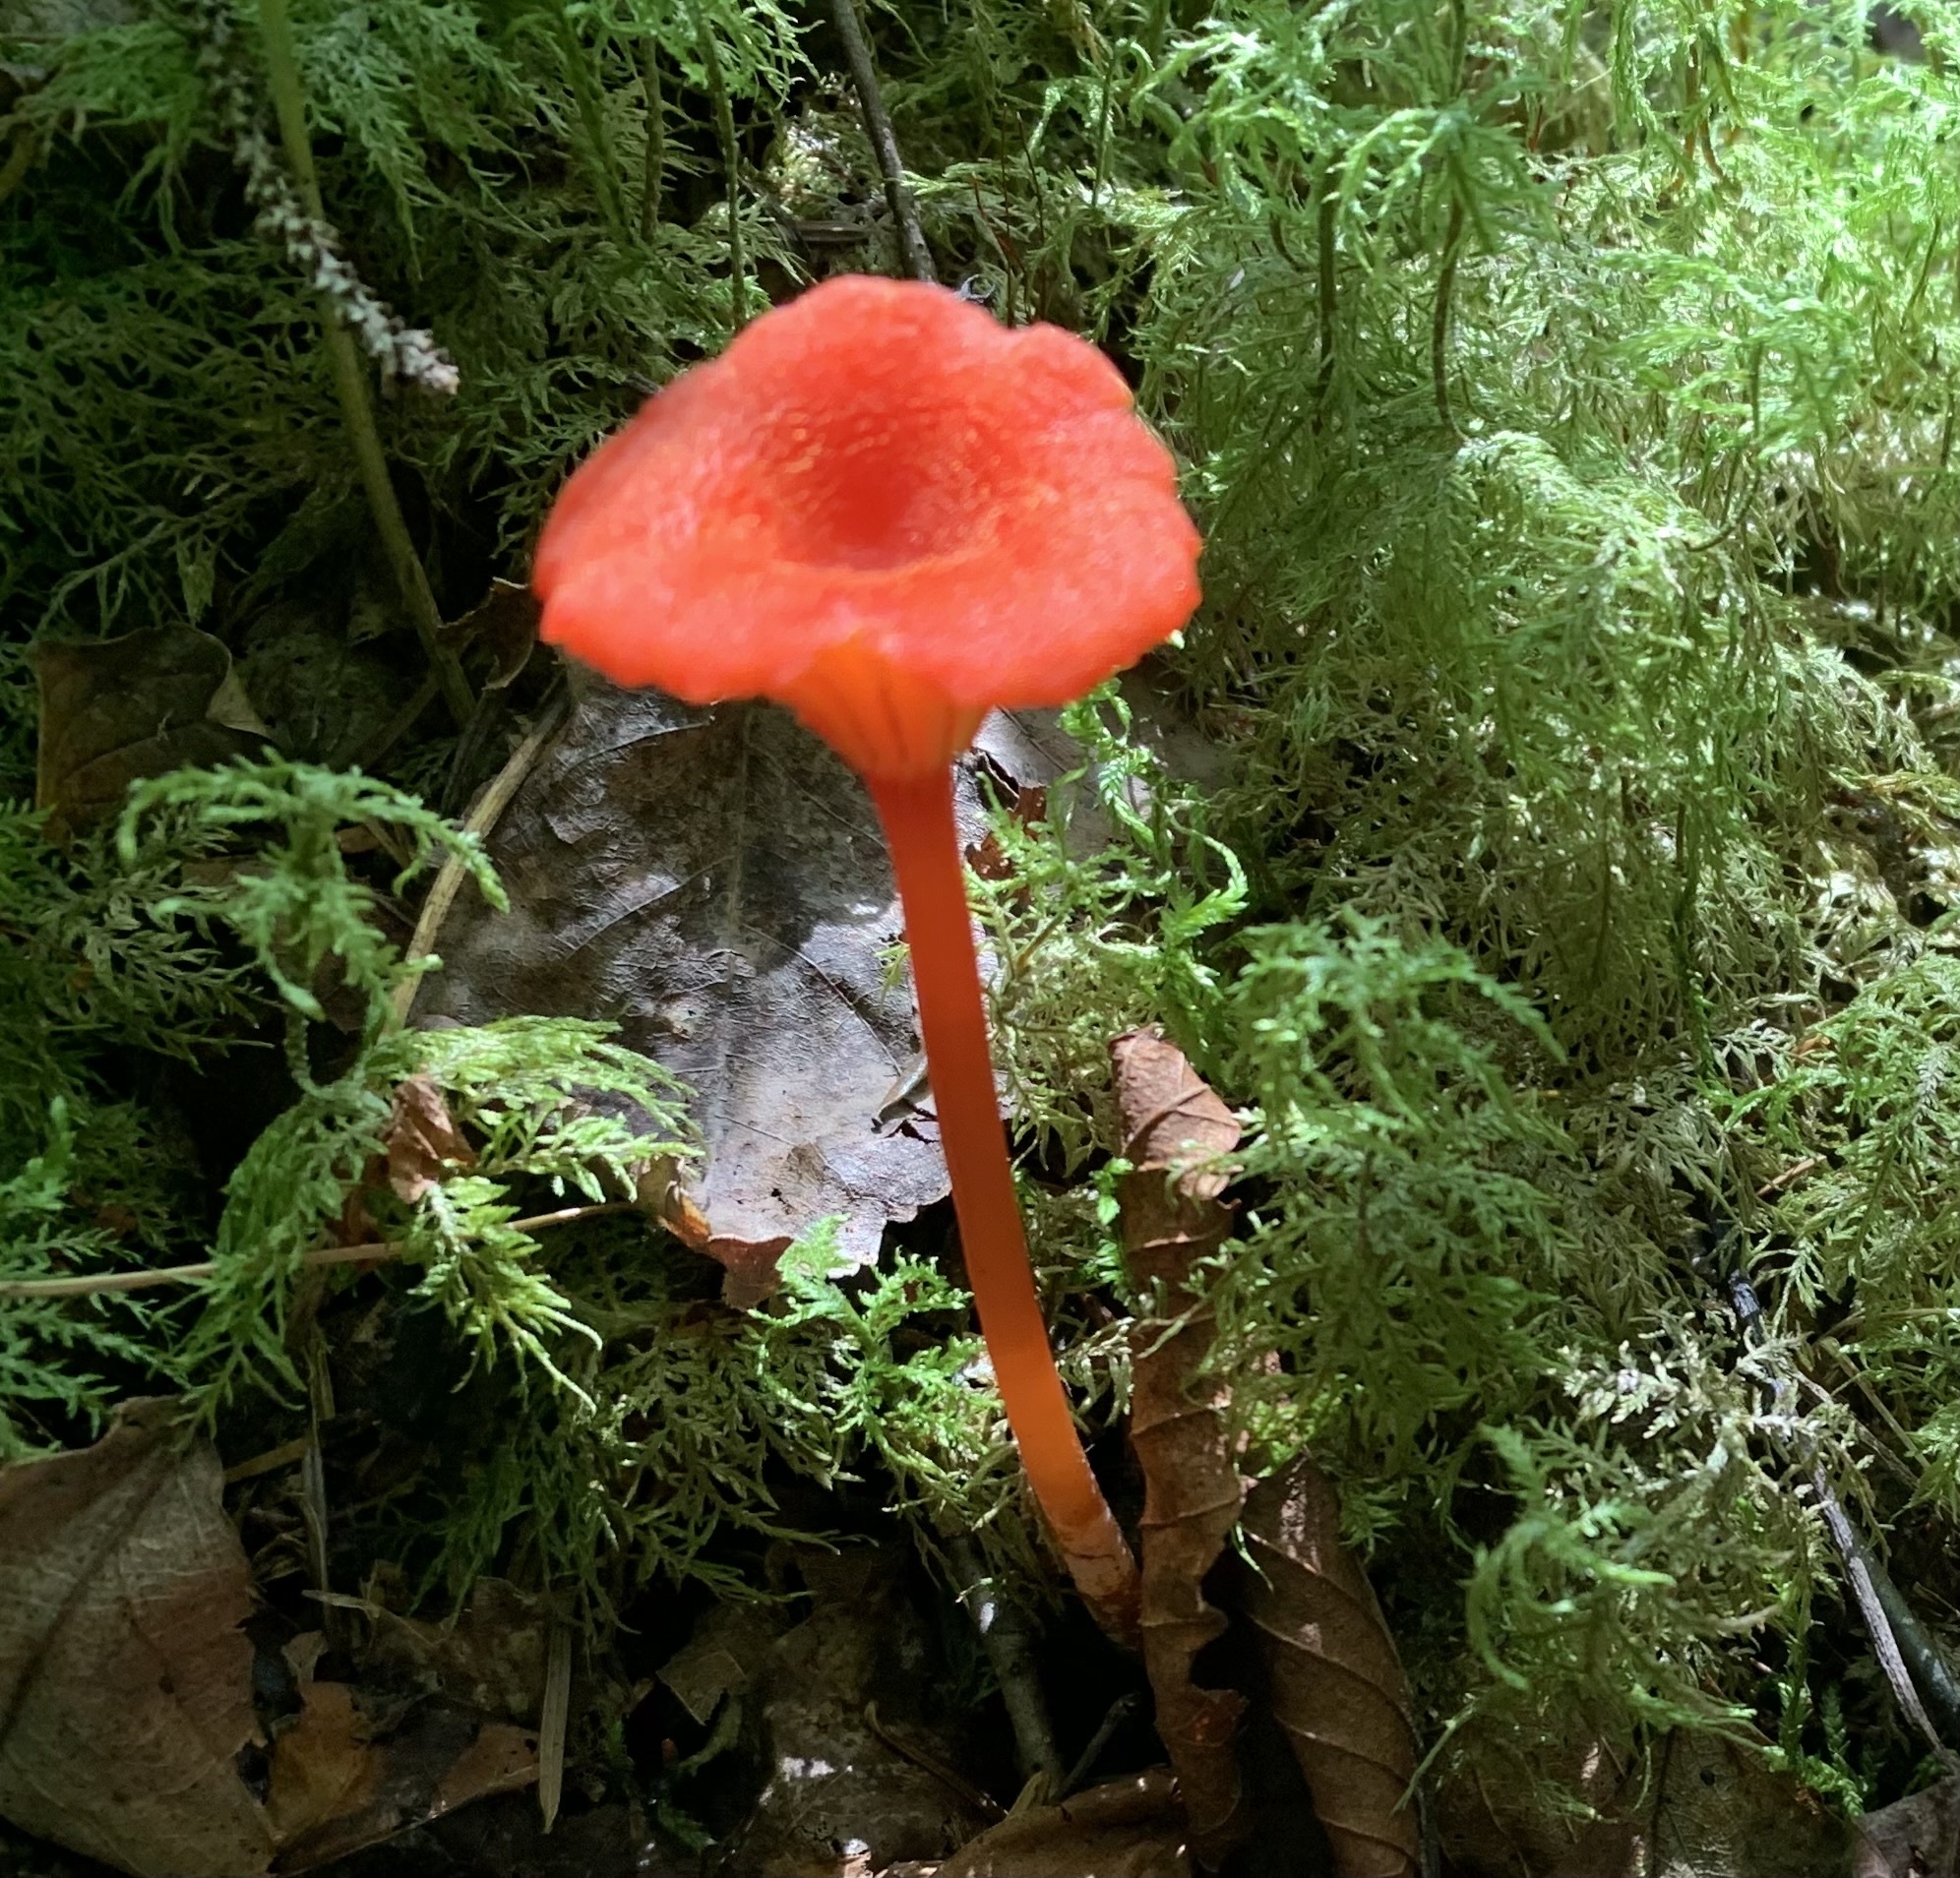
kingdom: Fungi
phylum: Basidiomycota
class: Agaricomycetes
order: Agaricales
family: Hygrophoraceae
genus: Hygrocybe
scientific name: Hygrocybe cantharellus
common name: Goblet waxcap
